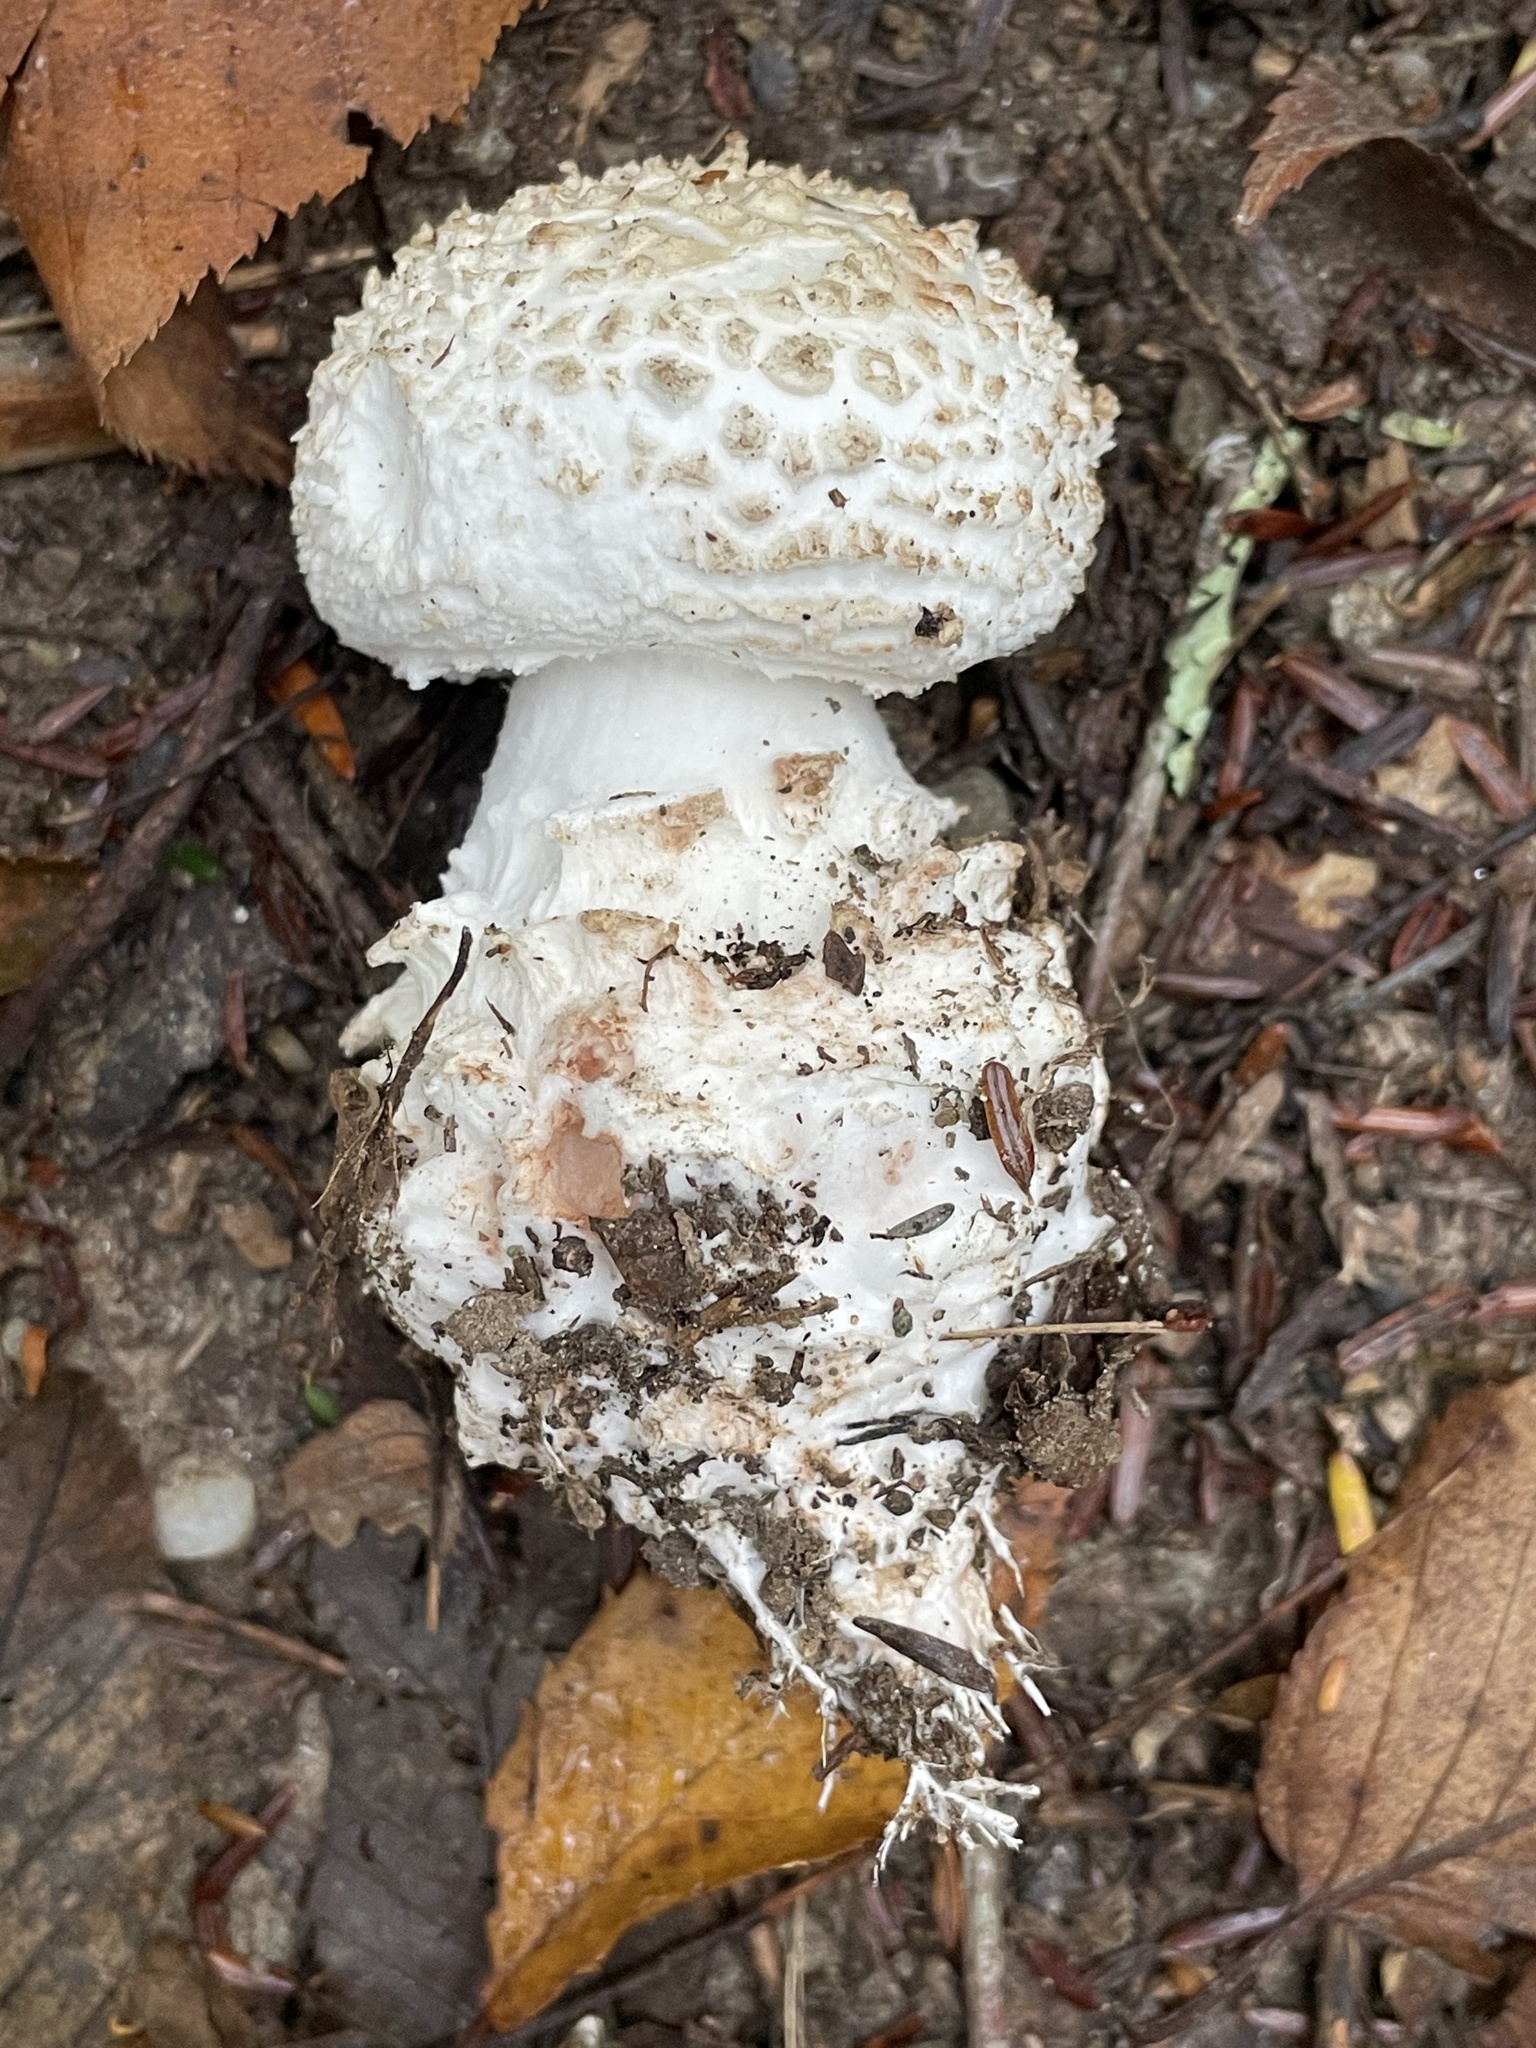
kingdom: Fungi
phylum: Basidiomycota
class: Agaricomycetes
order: Agaricales
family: Amanitaceae
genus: Amanita
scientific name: Amanita cokeri
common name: Coker's amanita
